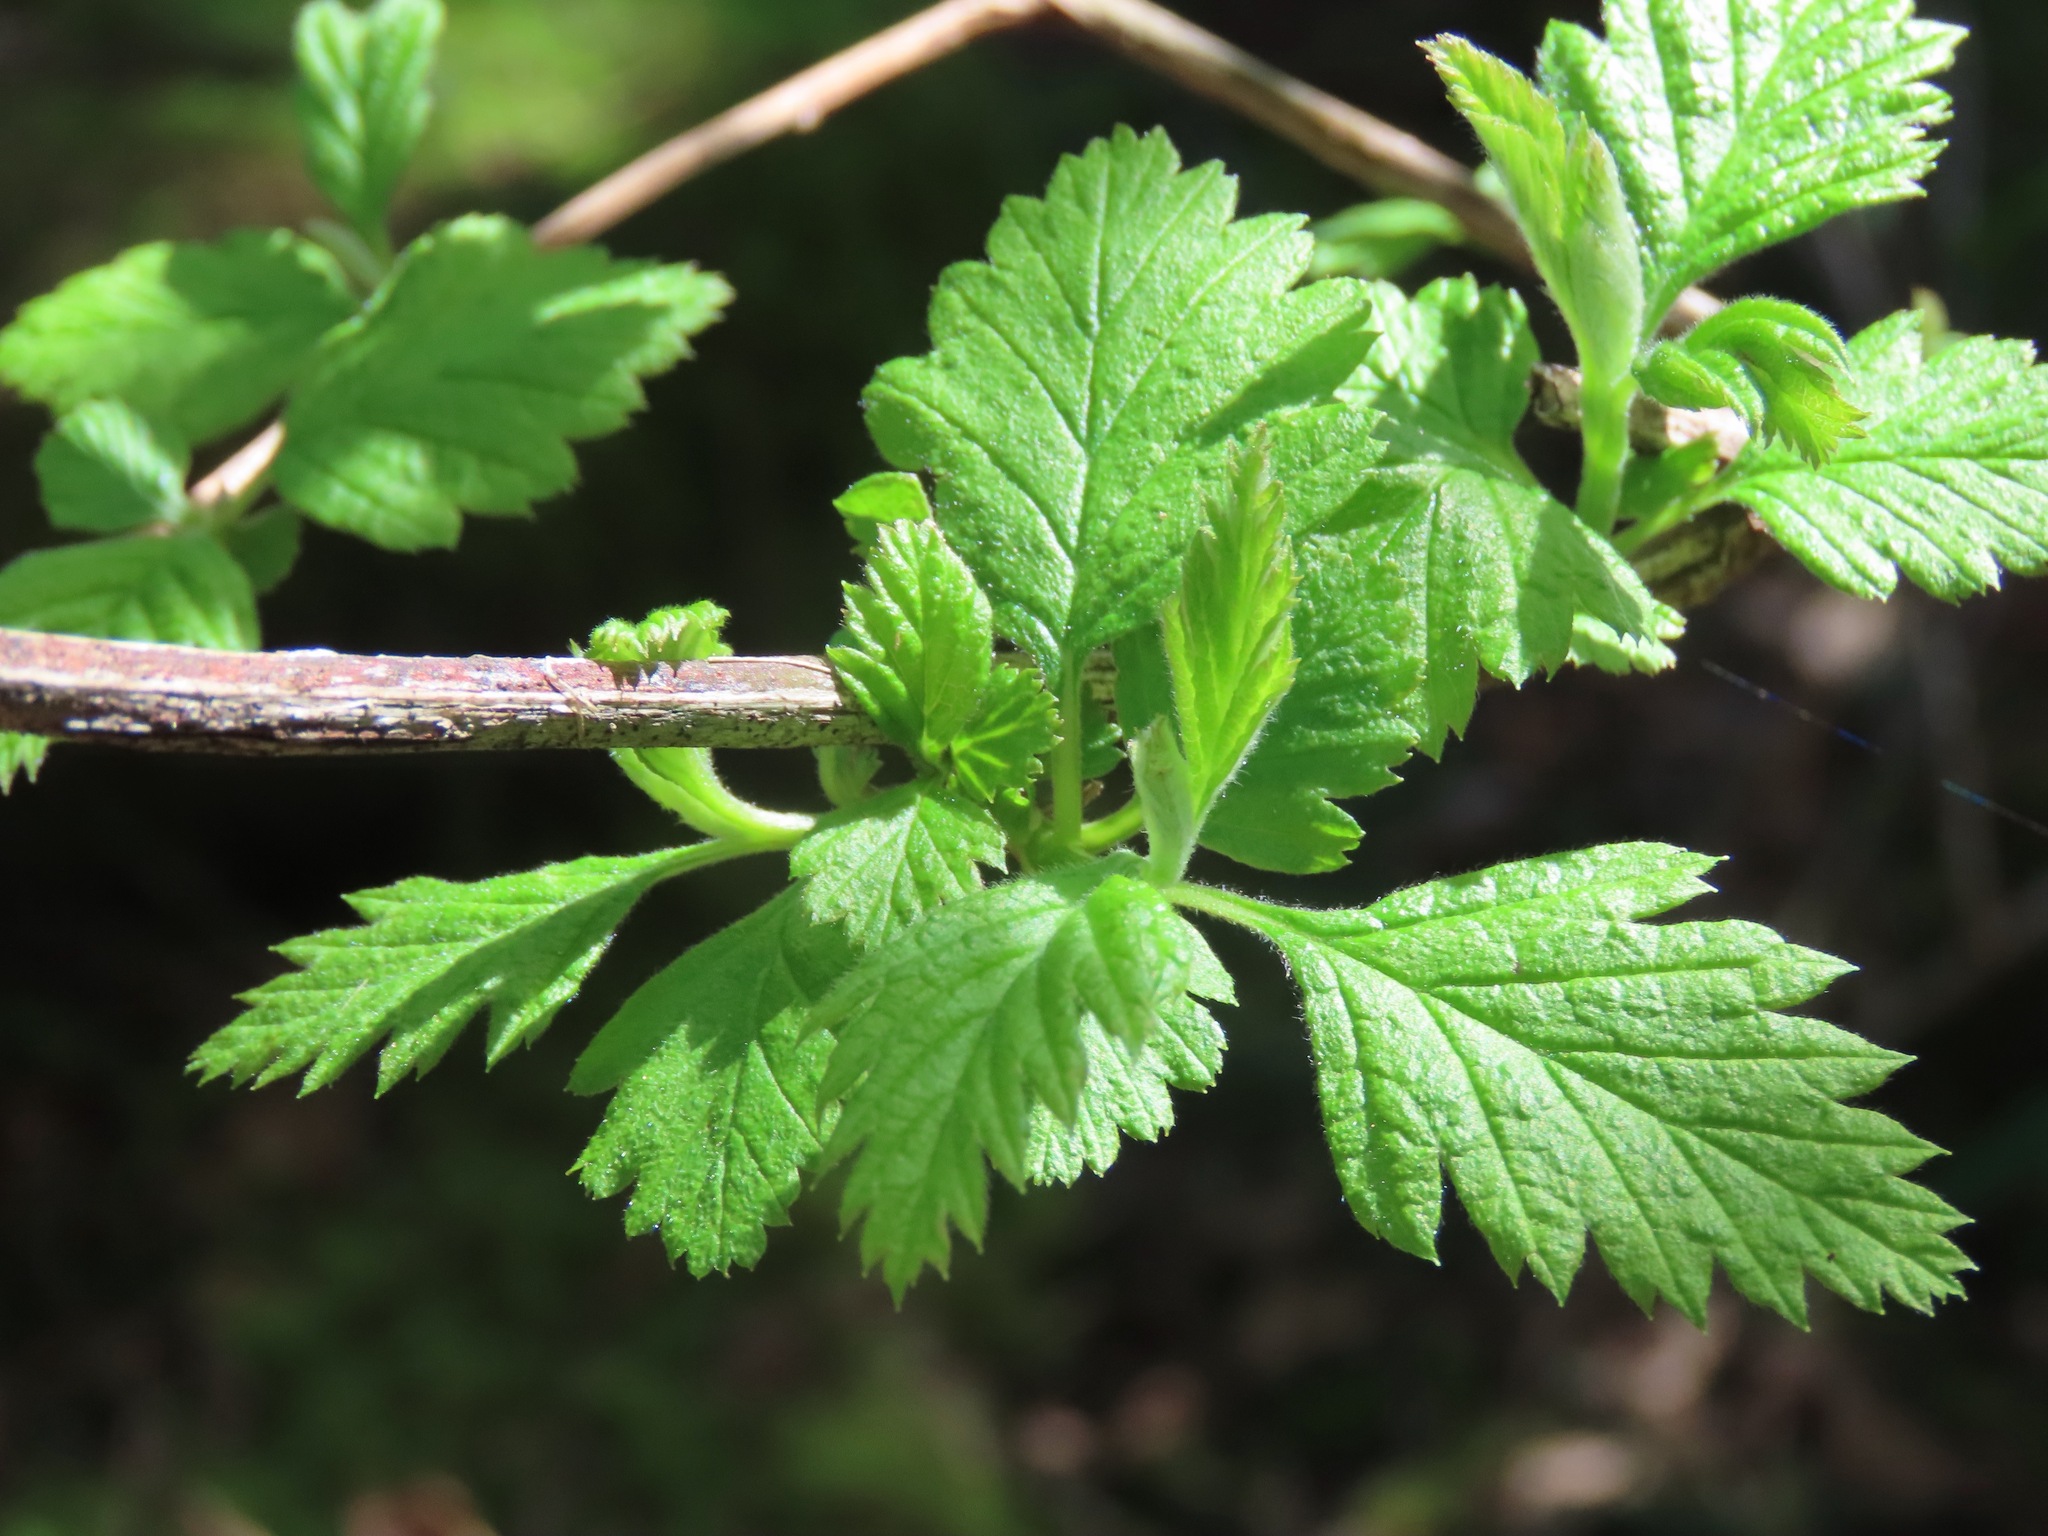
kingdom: Plantae
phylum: Tracheophyta
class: Magnoliopsida
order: Rosales
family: Rosaceae
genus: Holodiscus
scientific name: Holodiscus discolor
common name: Oceanspray
